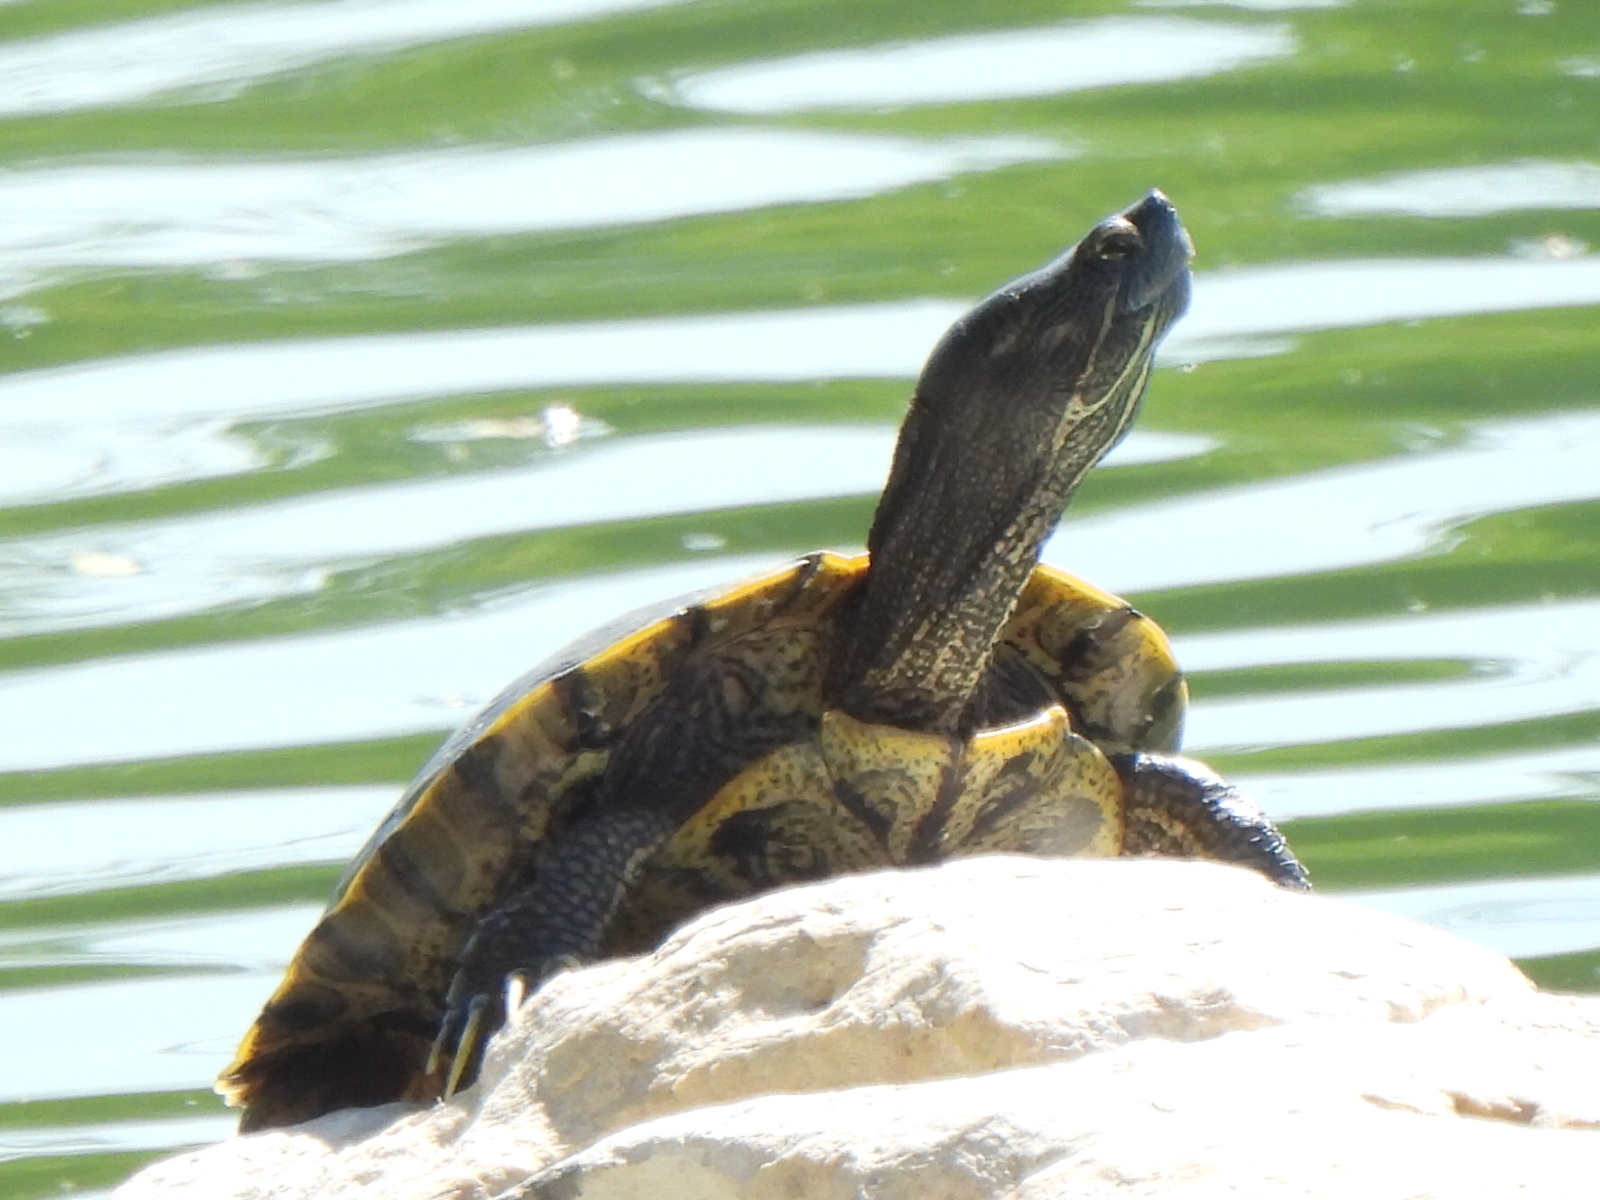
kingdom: Animalia
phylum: Chordata
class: Testudines
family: Emydidae
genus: Trachemys
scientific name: Trachemys scripta
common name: Slider
